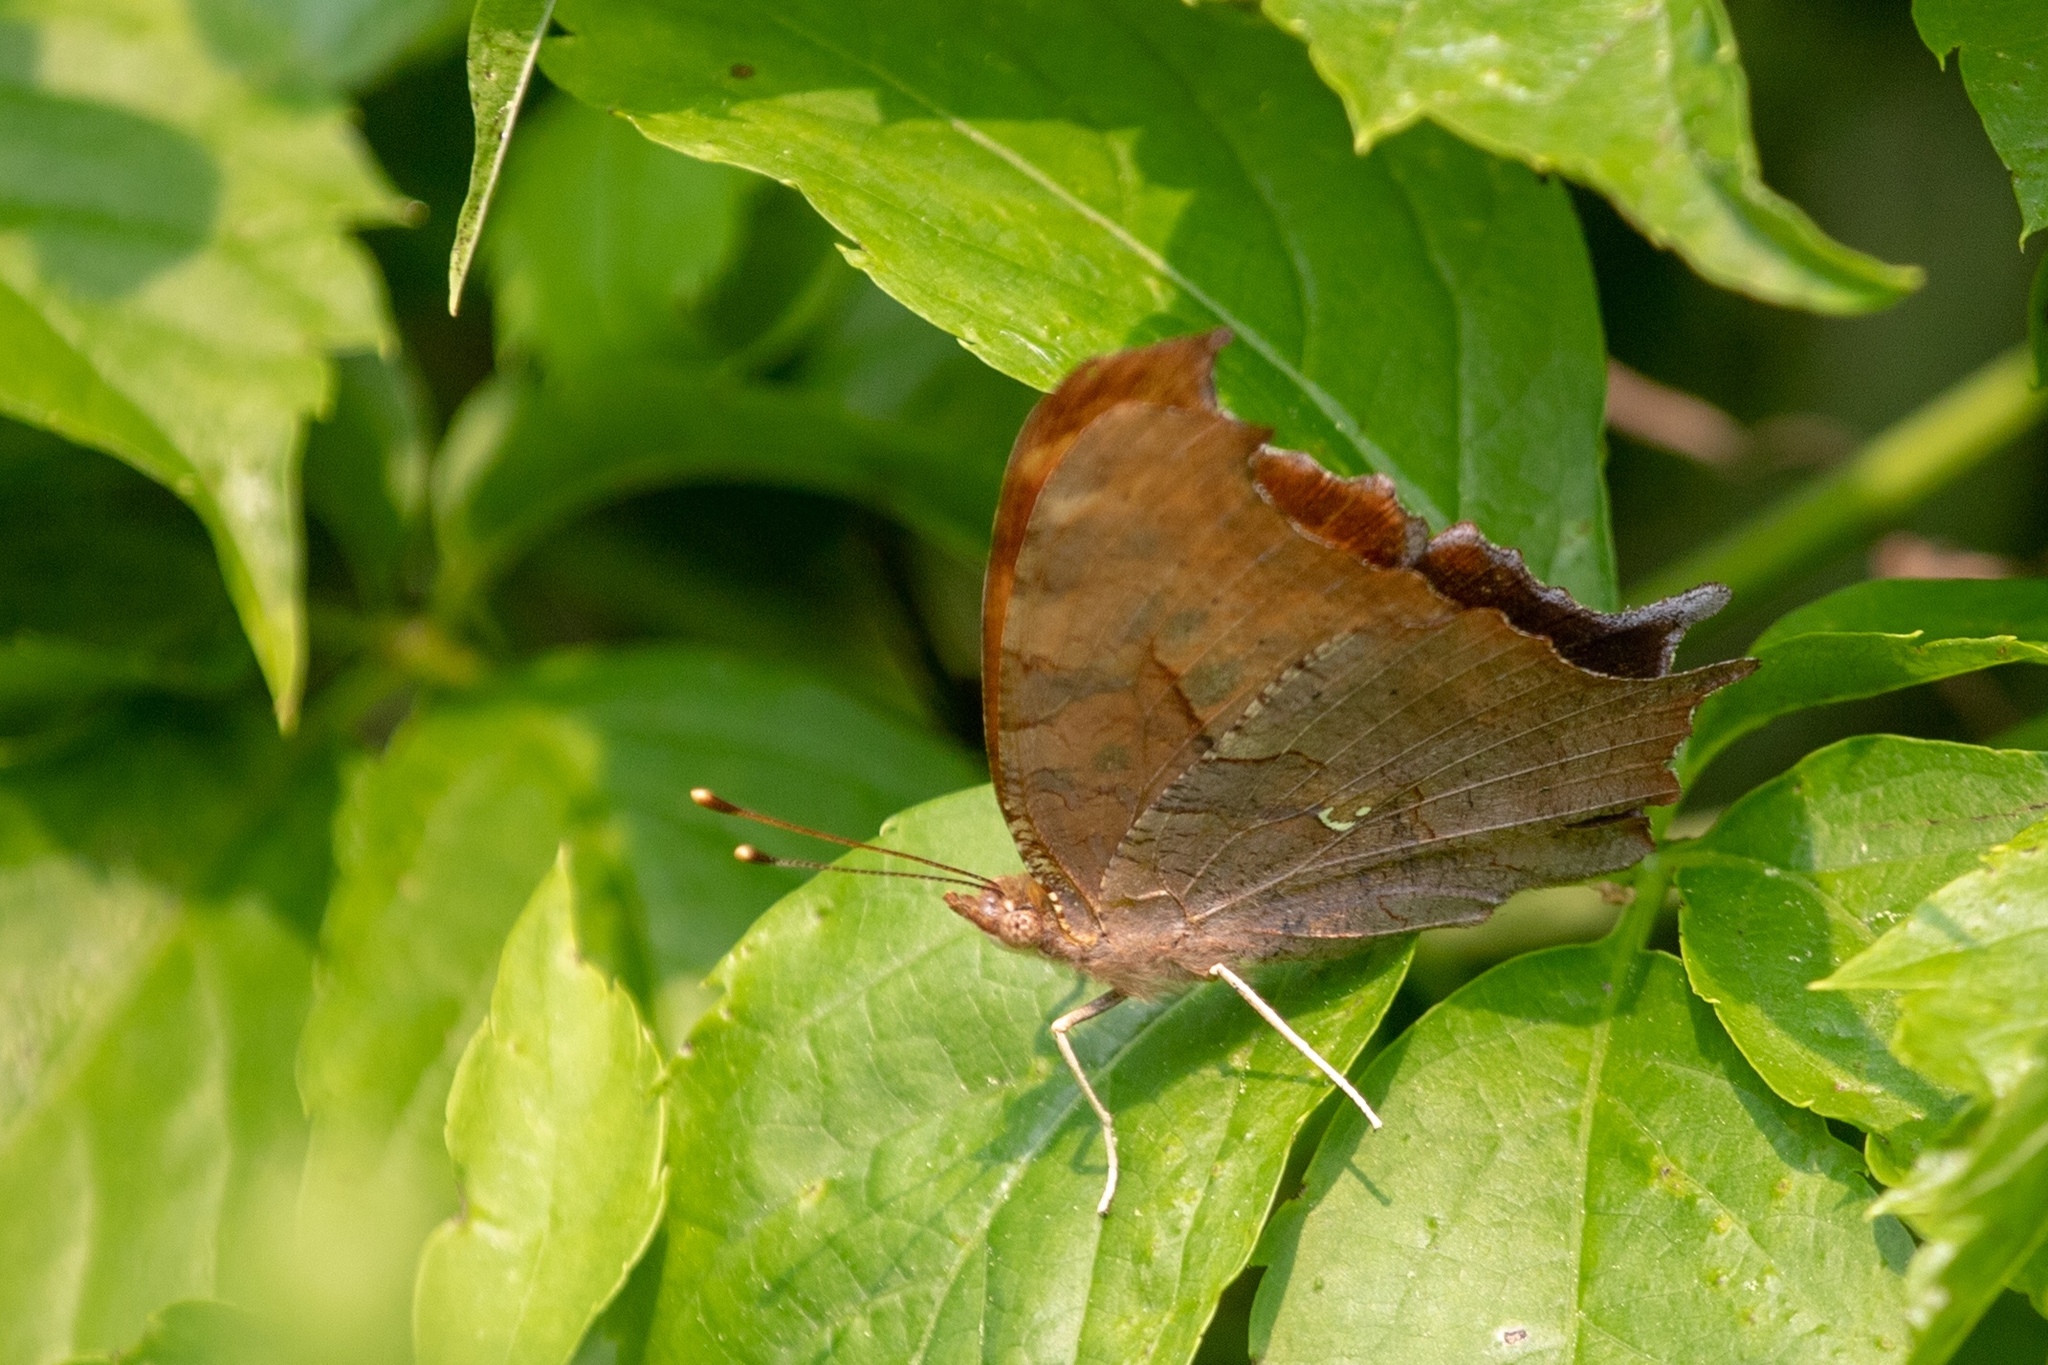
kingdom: Animalia
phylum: Arthropoda
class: Insecta
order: Lepidoptera
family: Nymphalidae
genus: Polygonia
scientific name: Polygonia interrogationis
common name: Question mark
